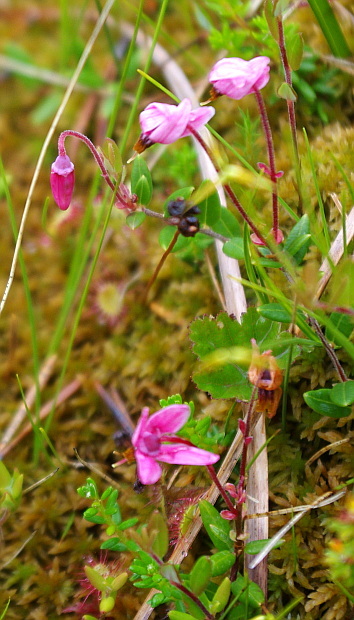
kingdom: Plantae
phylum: Tracheophyta
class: Magnoliopsida
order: Ericales
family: Ericaceae
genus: Vaccinium
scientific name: Vaccinium oxycoccos
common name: Cranberry
